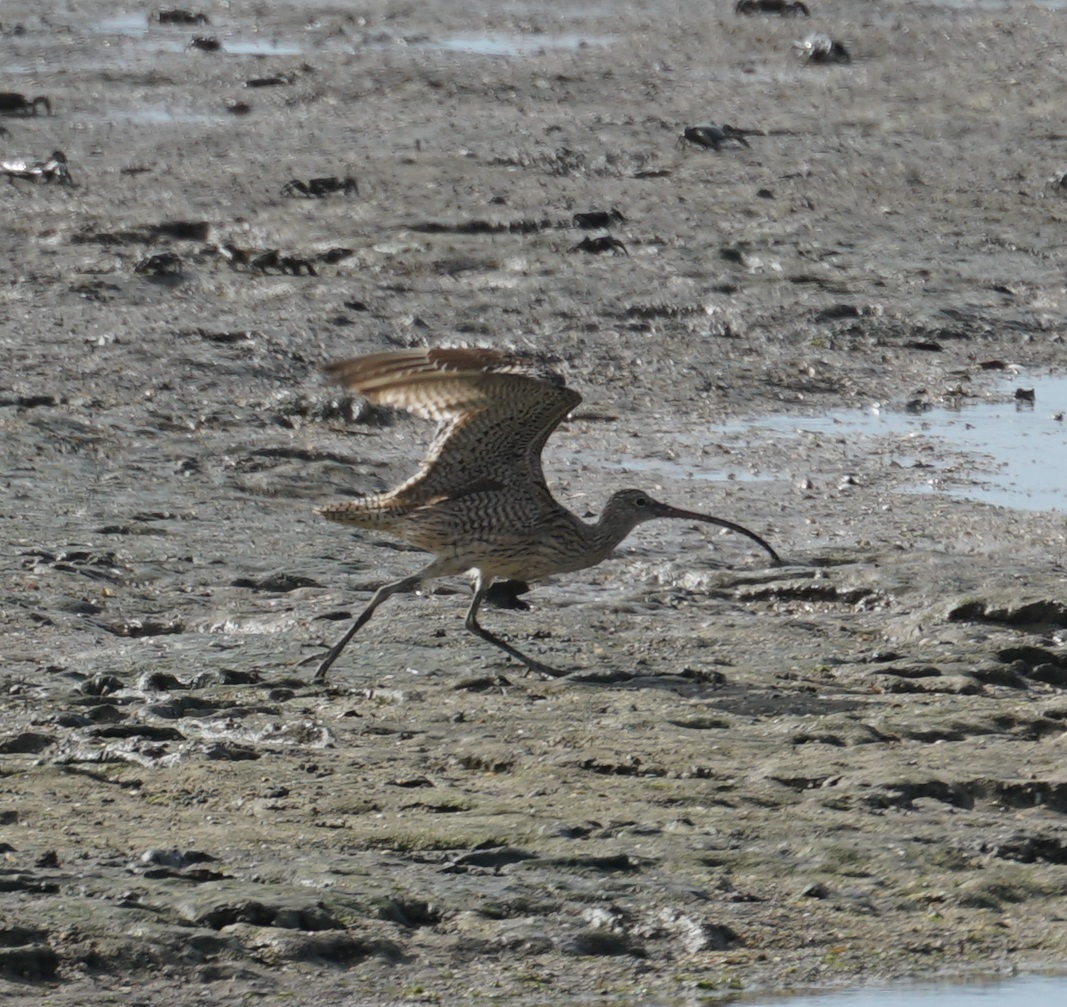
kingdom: Animalia
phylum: Chordata
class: Aves
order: Charadriiformes
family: Scolopacidae
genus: Numenius
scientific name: Numenius madagascariensis
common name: Far eastern curlew
